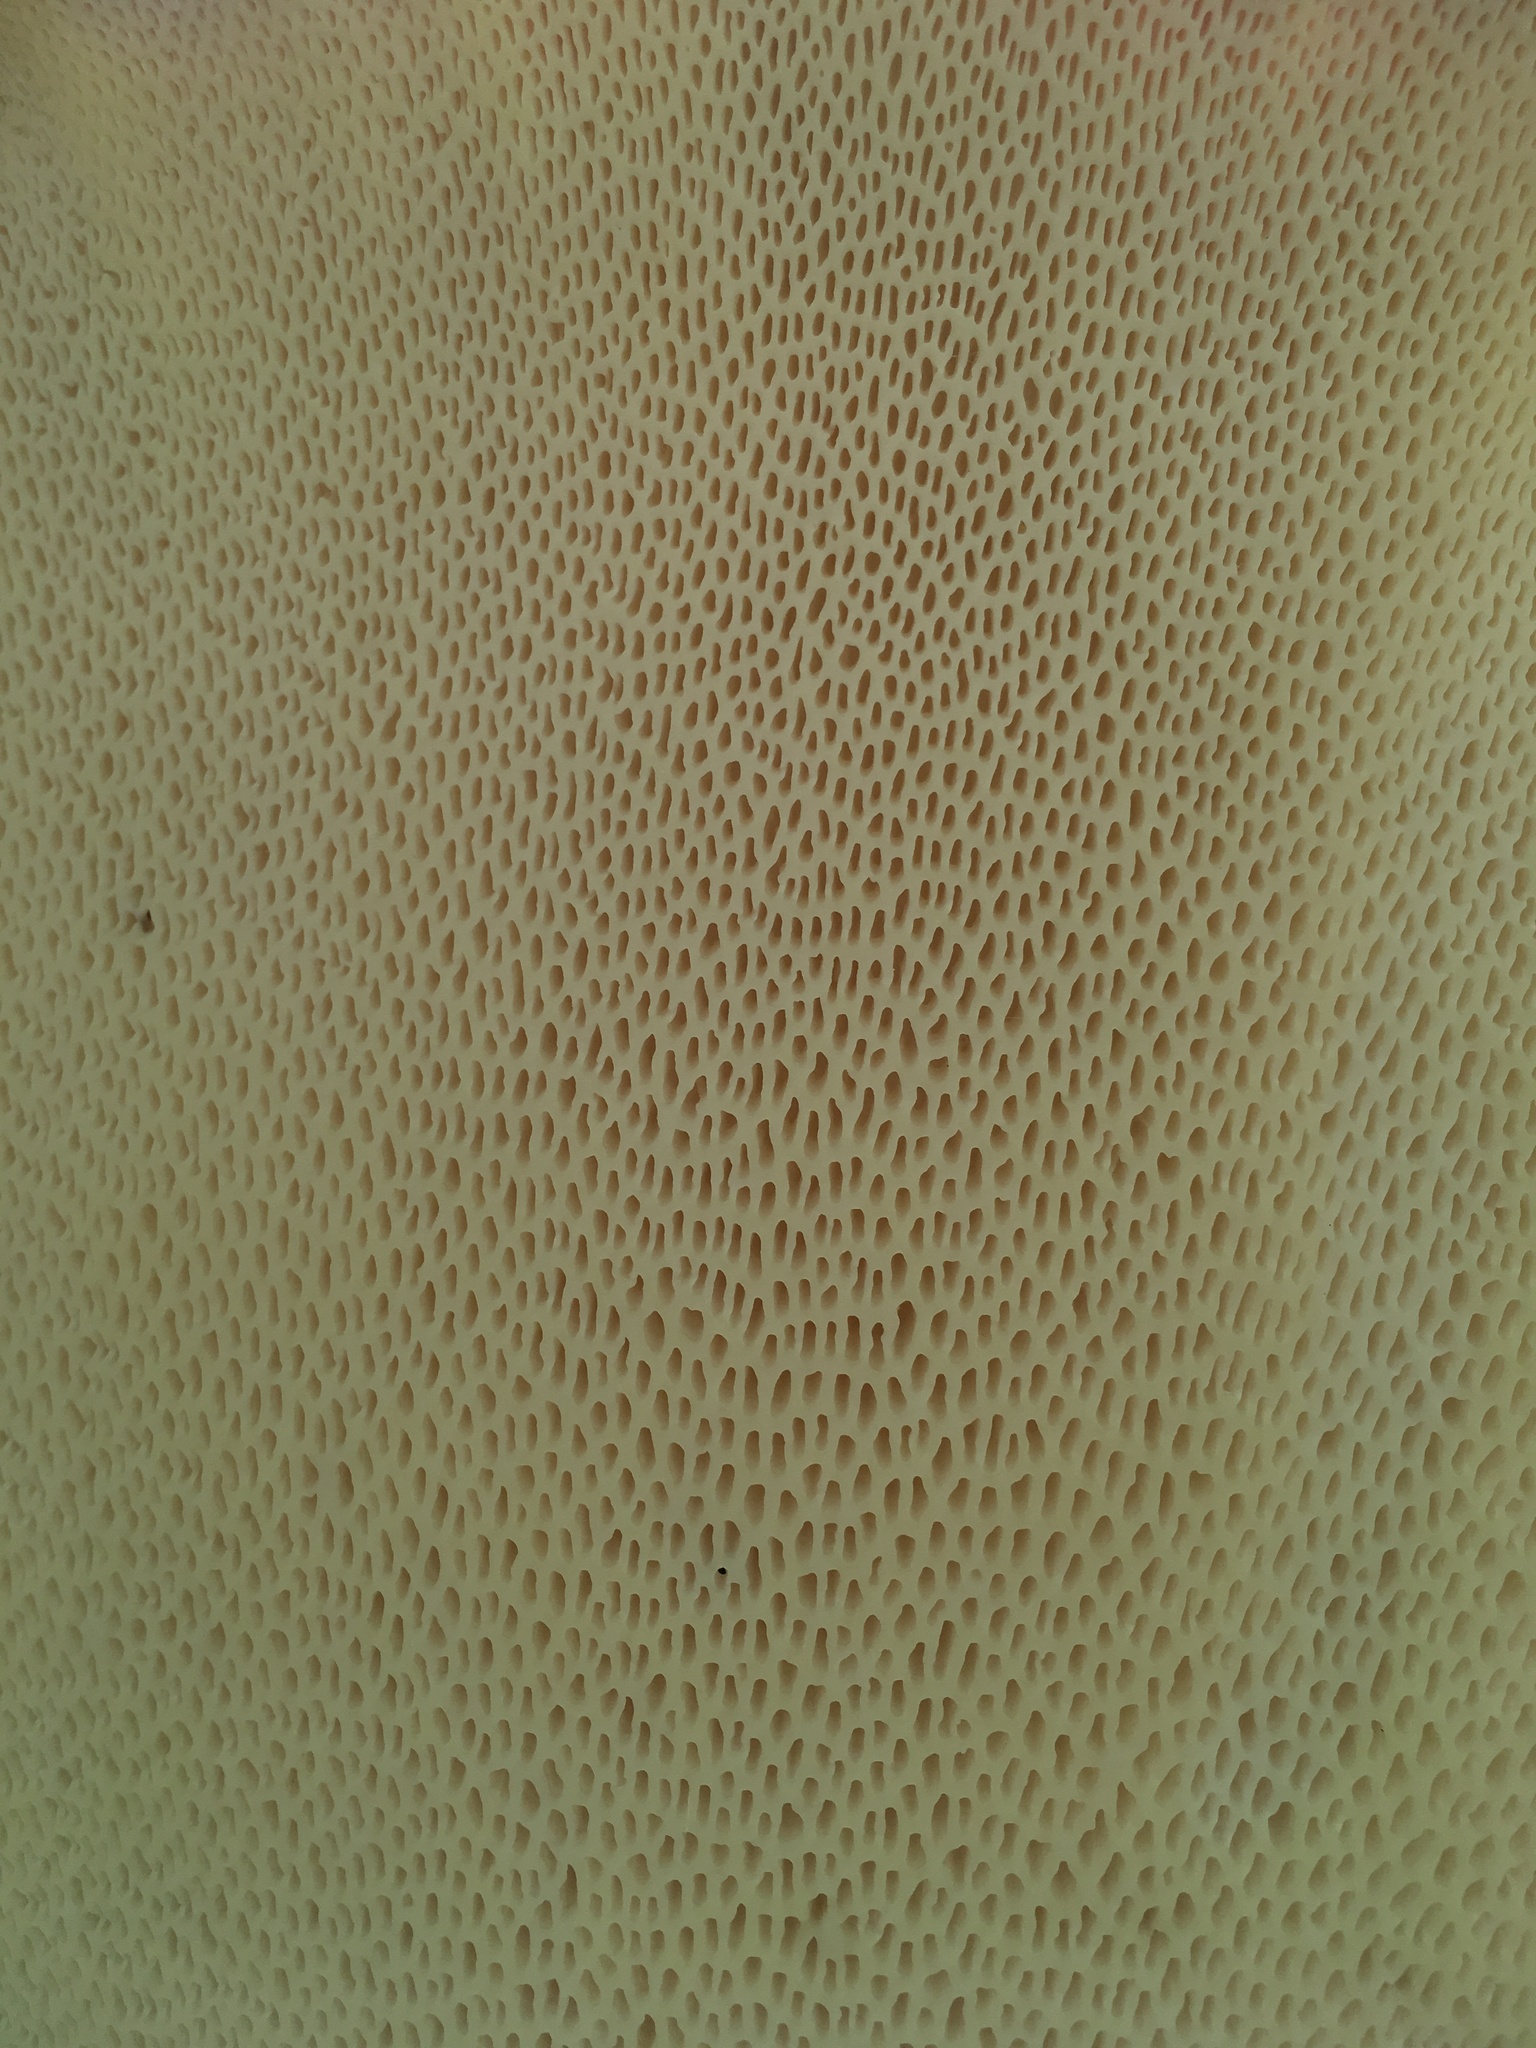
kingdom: Fungi
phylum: Basidiomycota
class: Agaricomycetes
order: Polyporales
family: Polyporaceae
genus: Cerioporus
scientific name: Cerioporus squamosus
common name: Dryad's saddle
